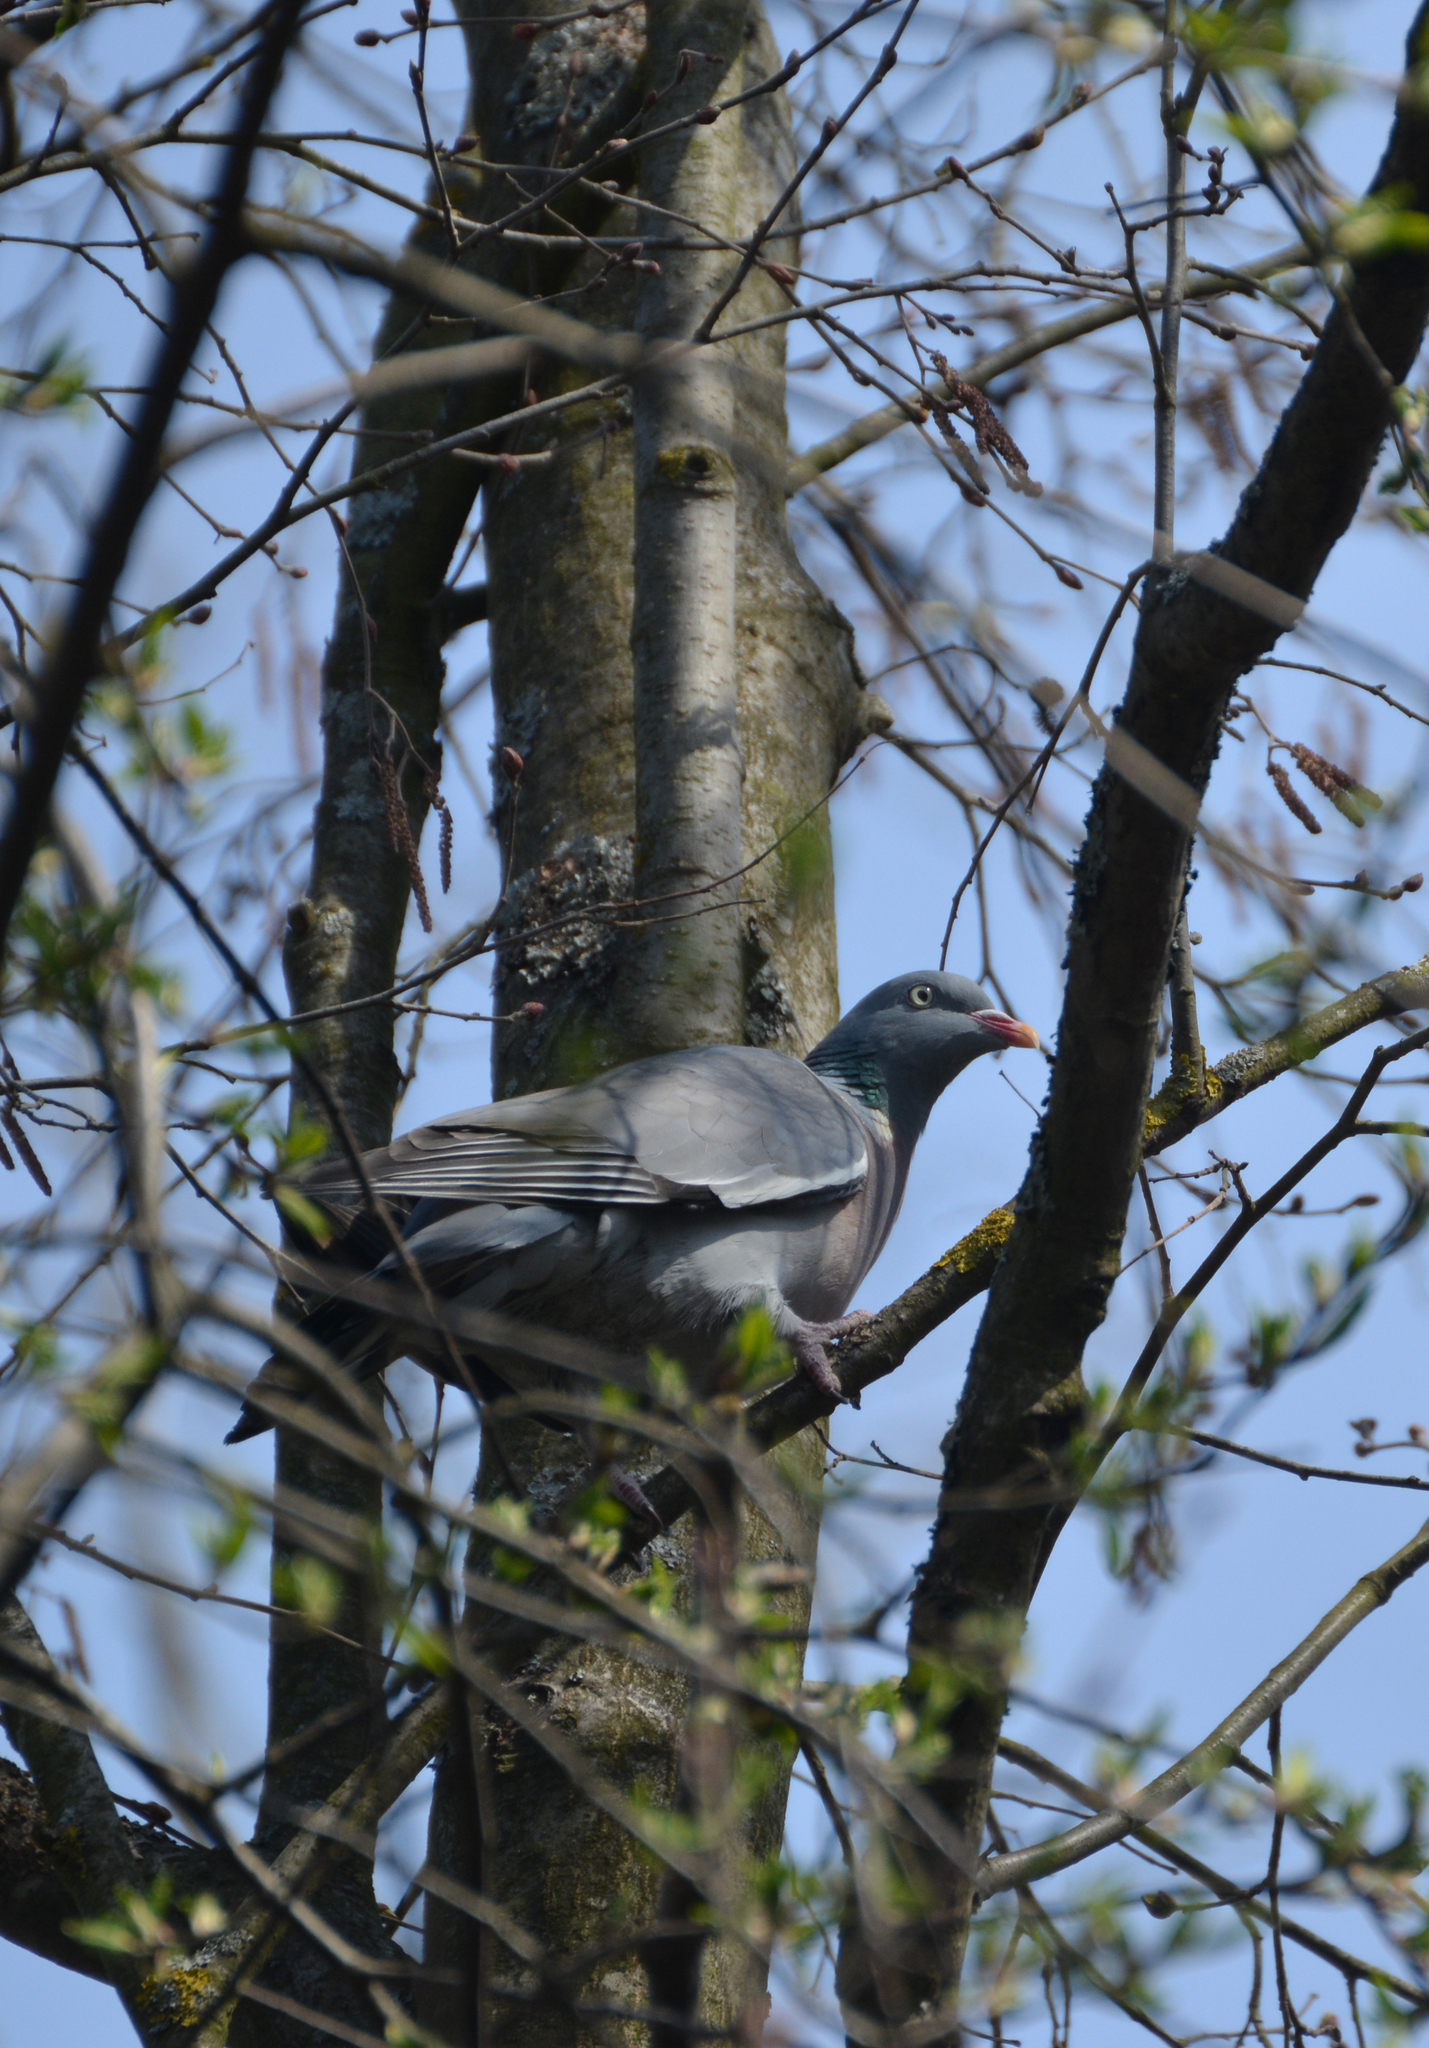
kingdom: Animalia
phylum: Chordata
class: Aves
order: Columbiformes
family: Columbidae
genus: Columba
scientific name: Columba palumbus
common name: Common wood pigeon
